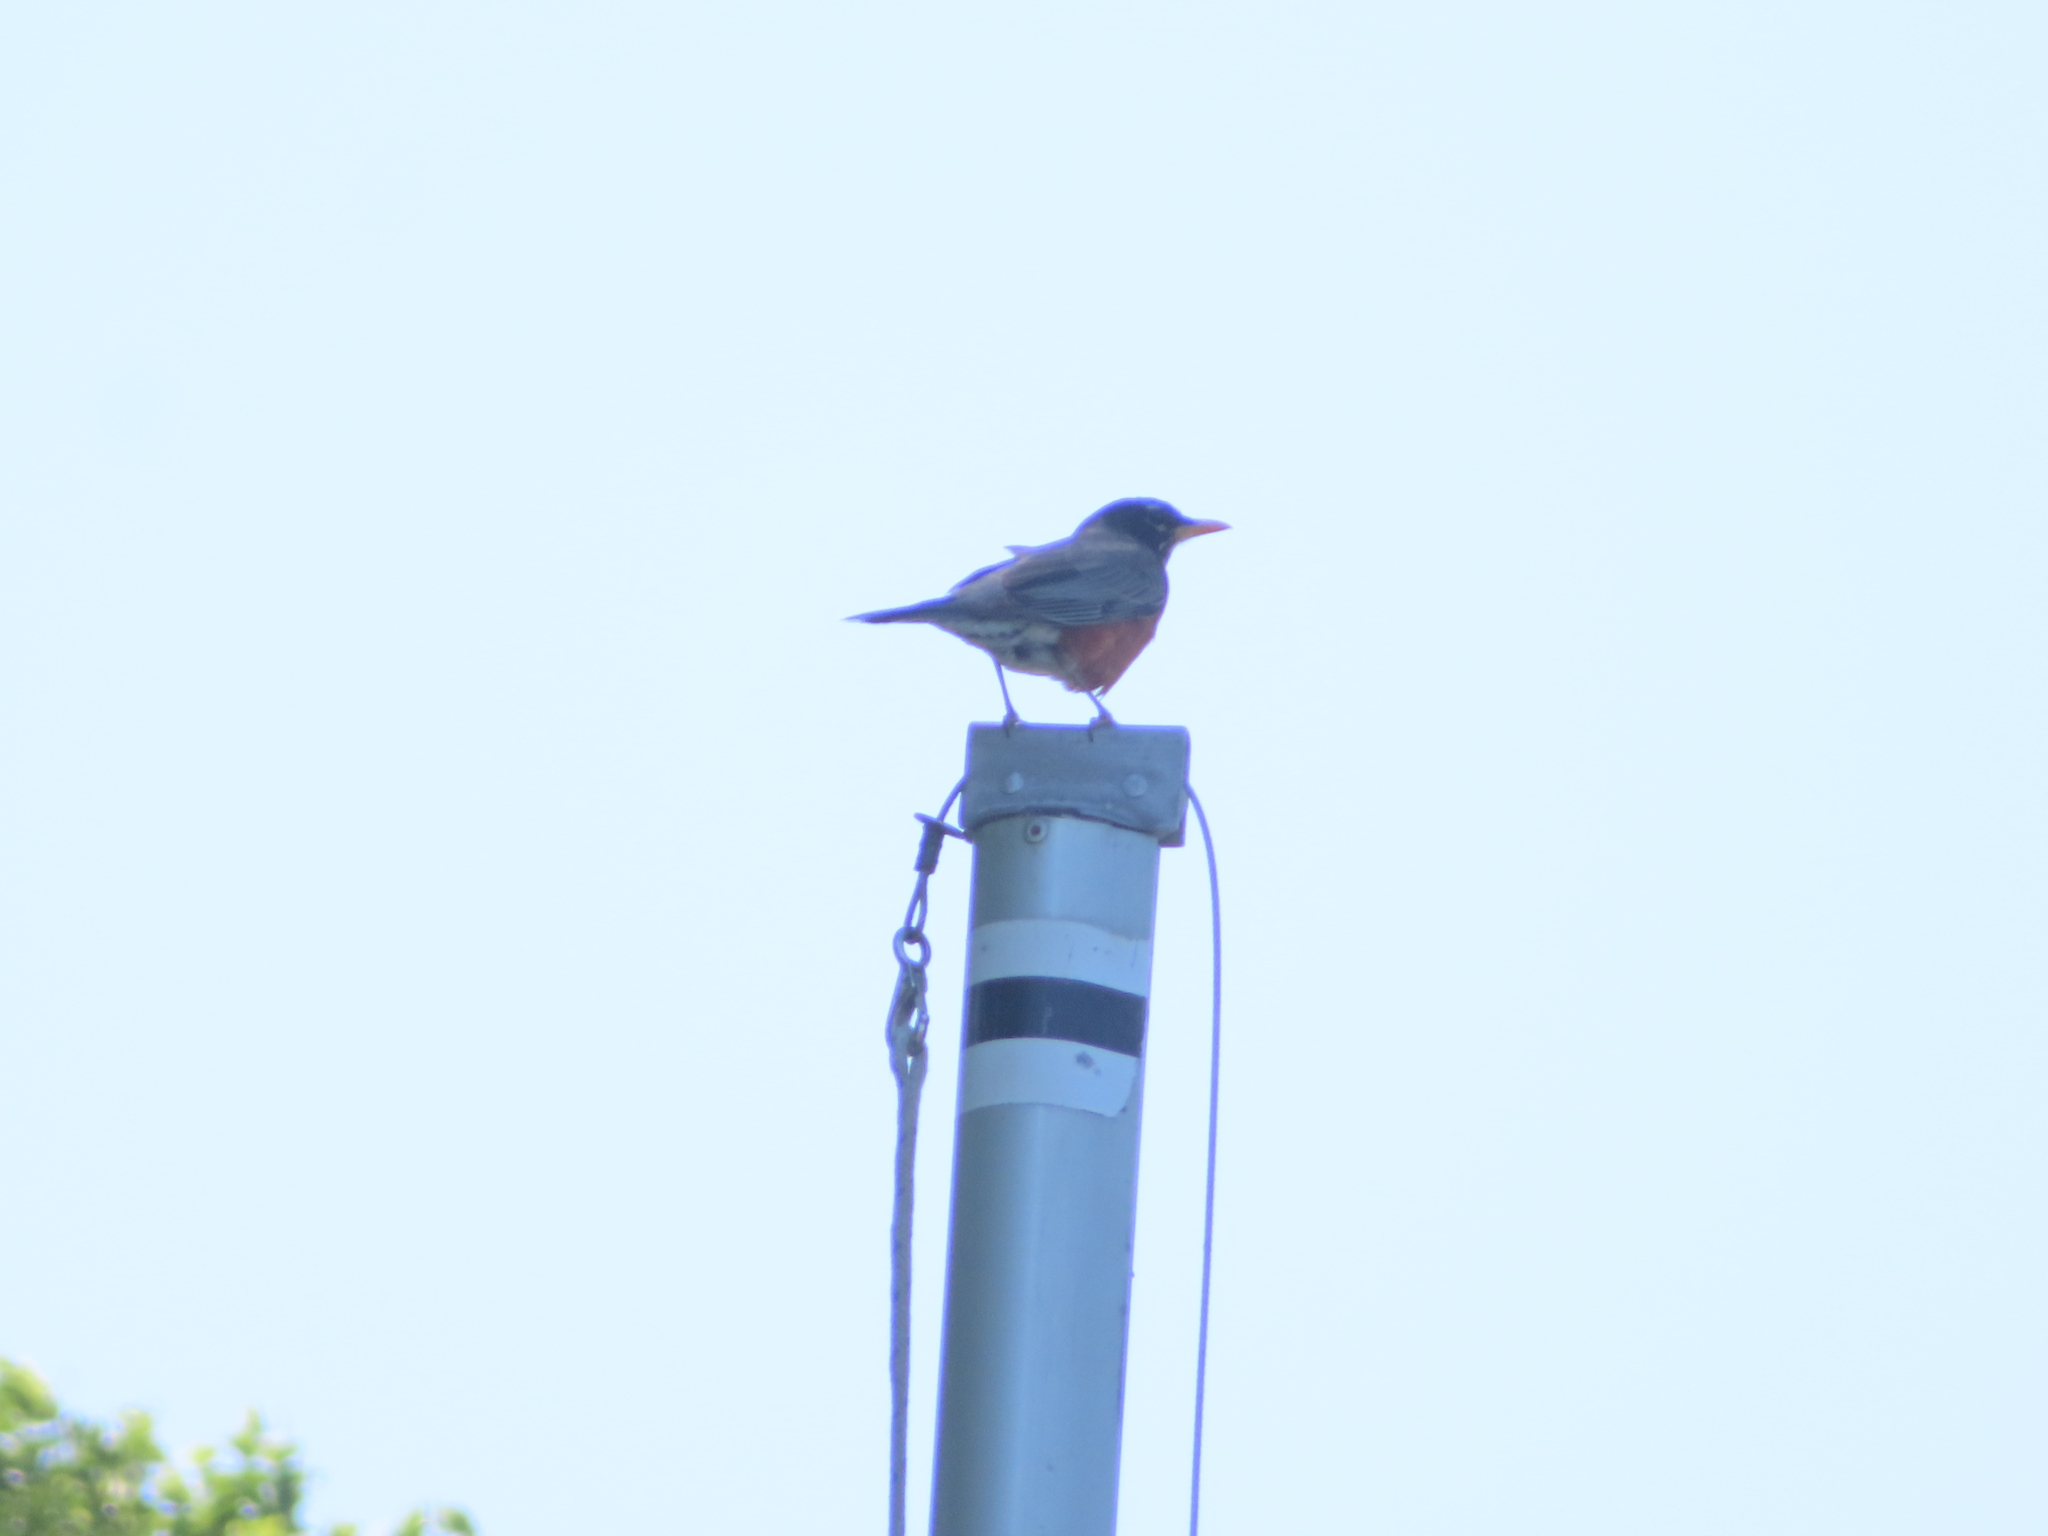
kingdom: Animalia
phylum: Chordata
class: Aves
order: Passeriformes
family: Turdidae
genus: Turdus
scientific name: Turdus migratorius
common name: American robin
